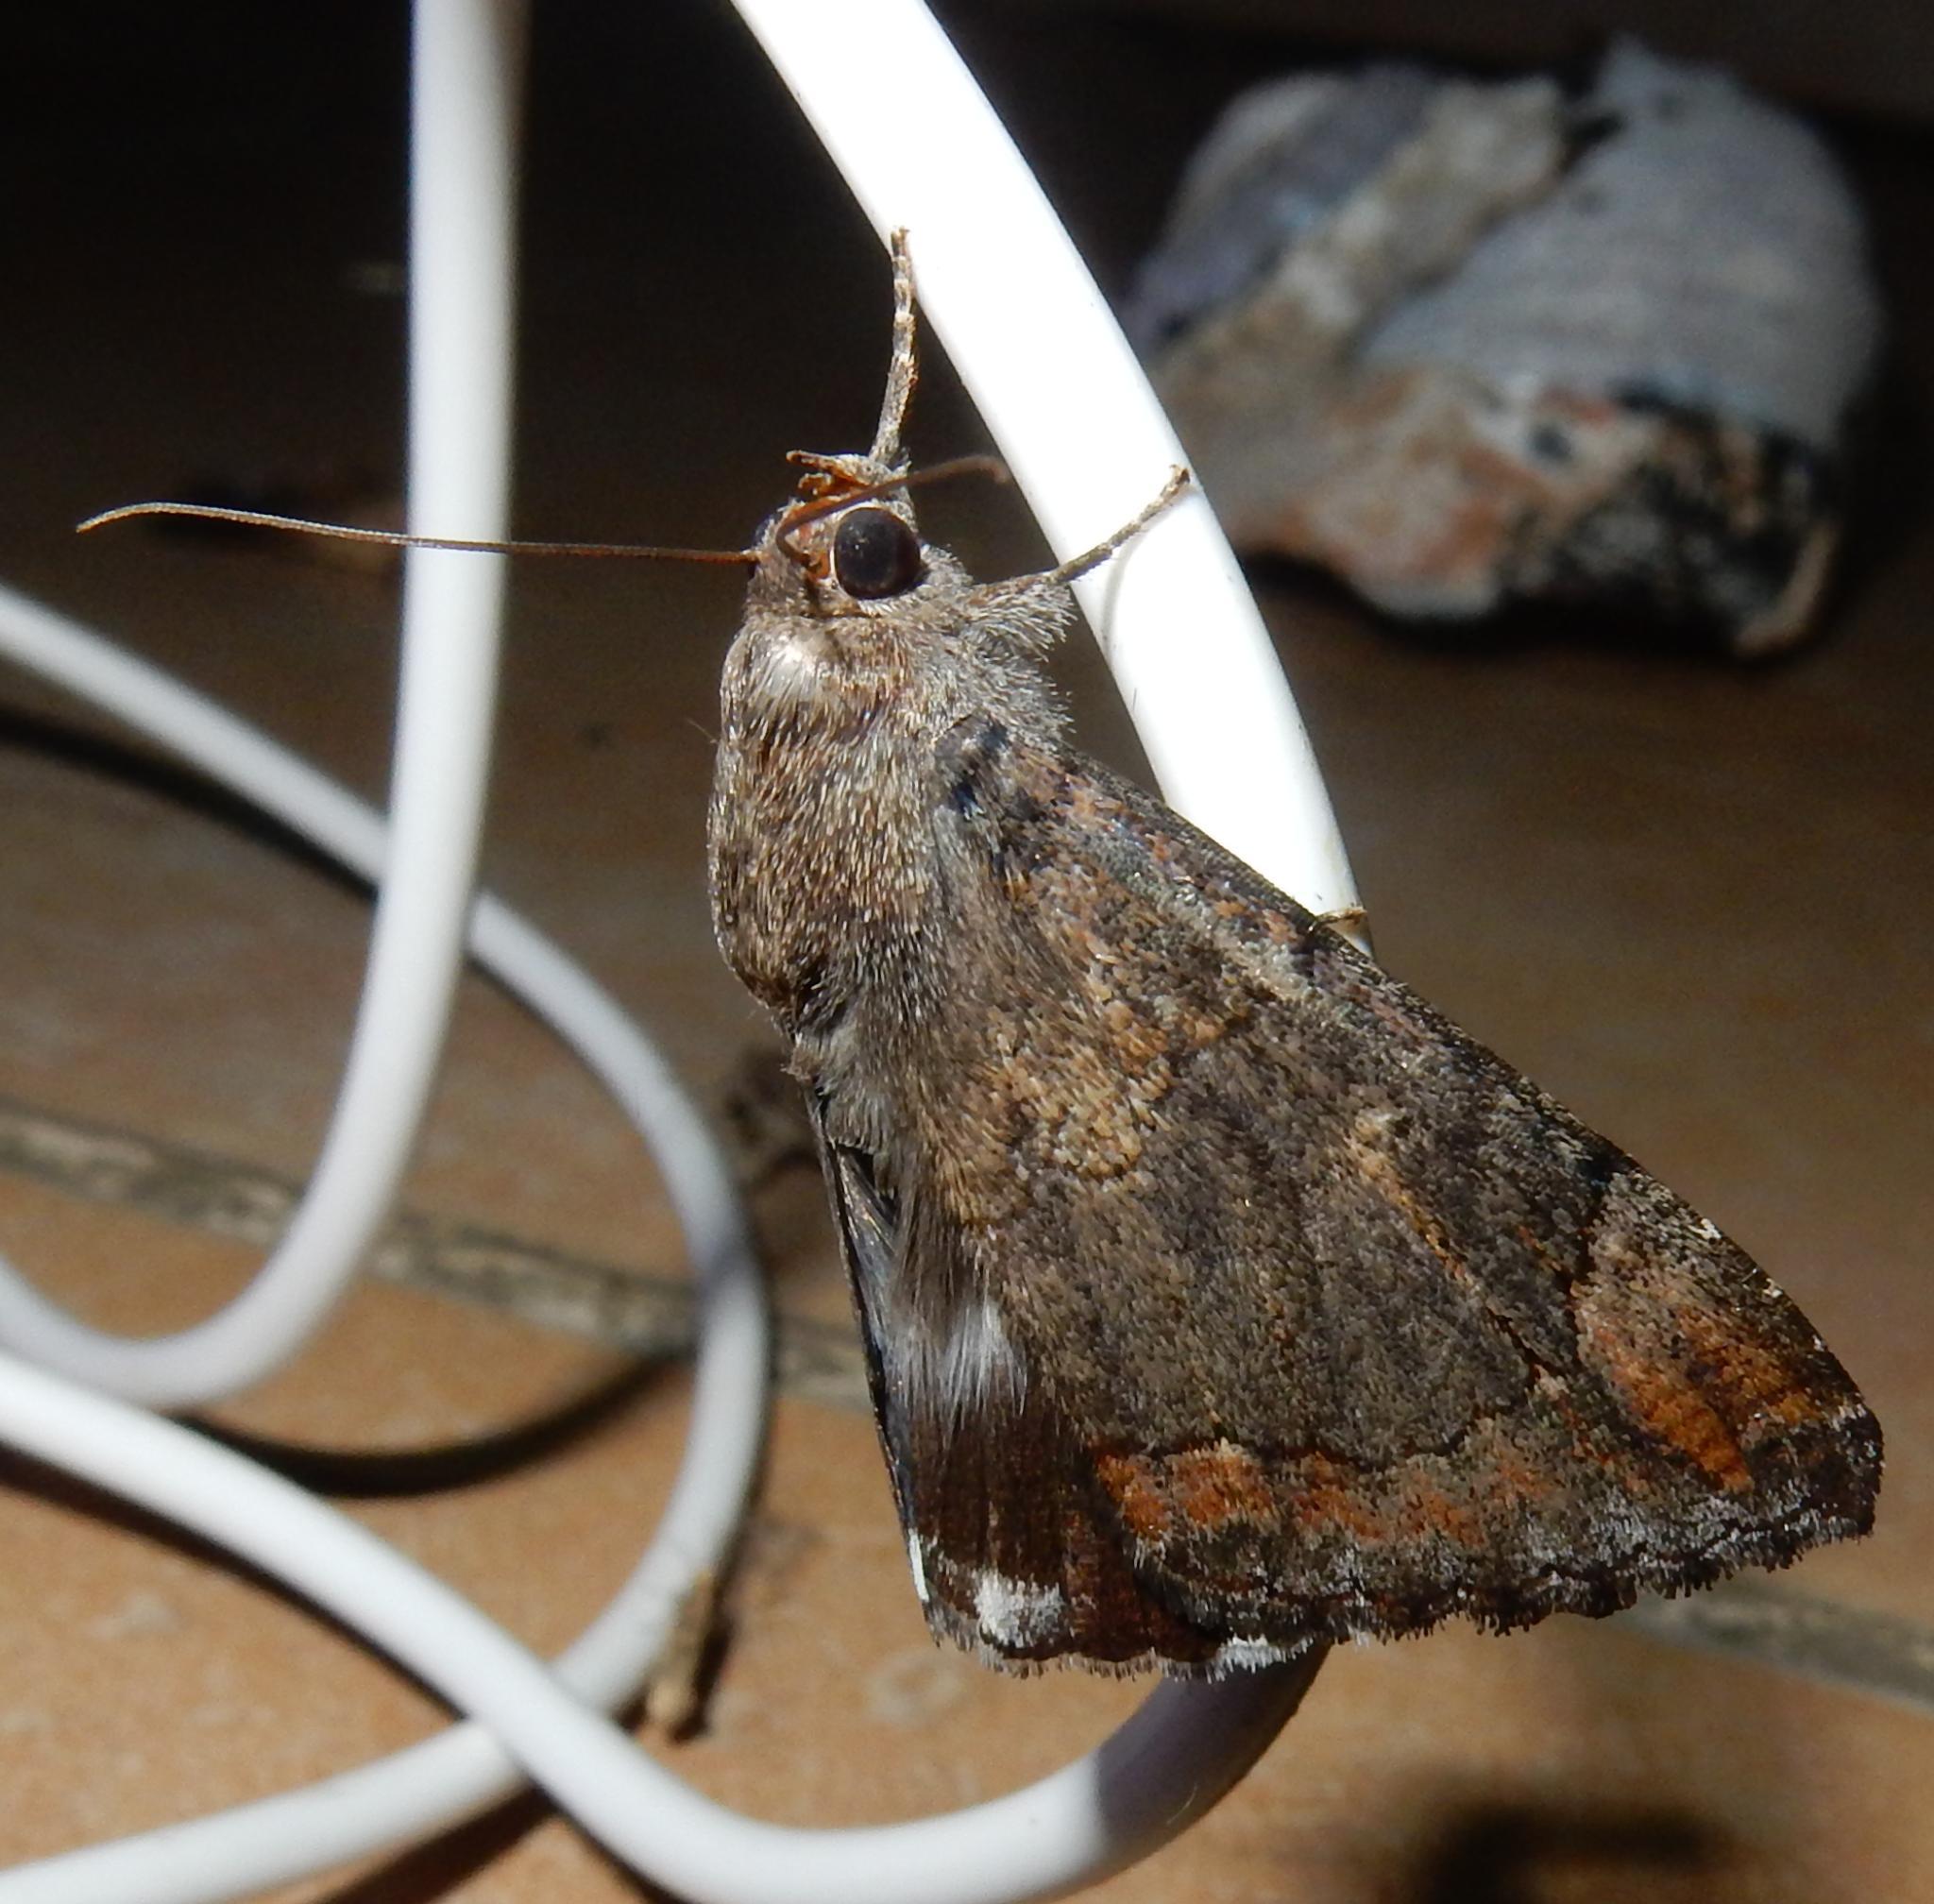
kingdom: Animalia
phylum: Arthropoda
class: Insecta
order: Lepidoptera
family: Erebidae
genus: Achaea
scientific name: Achaea catella
